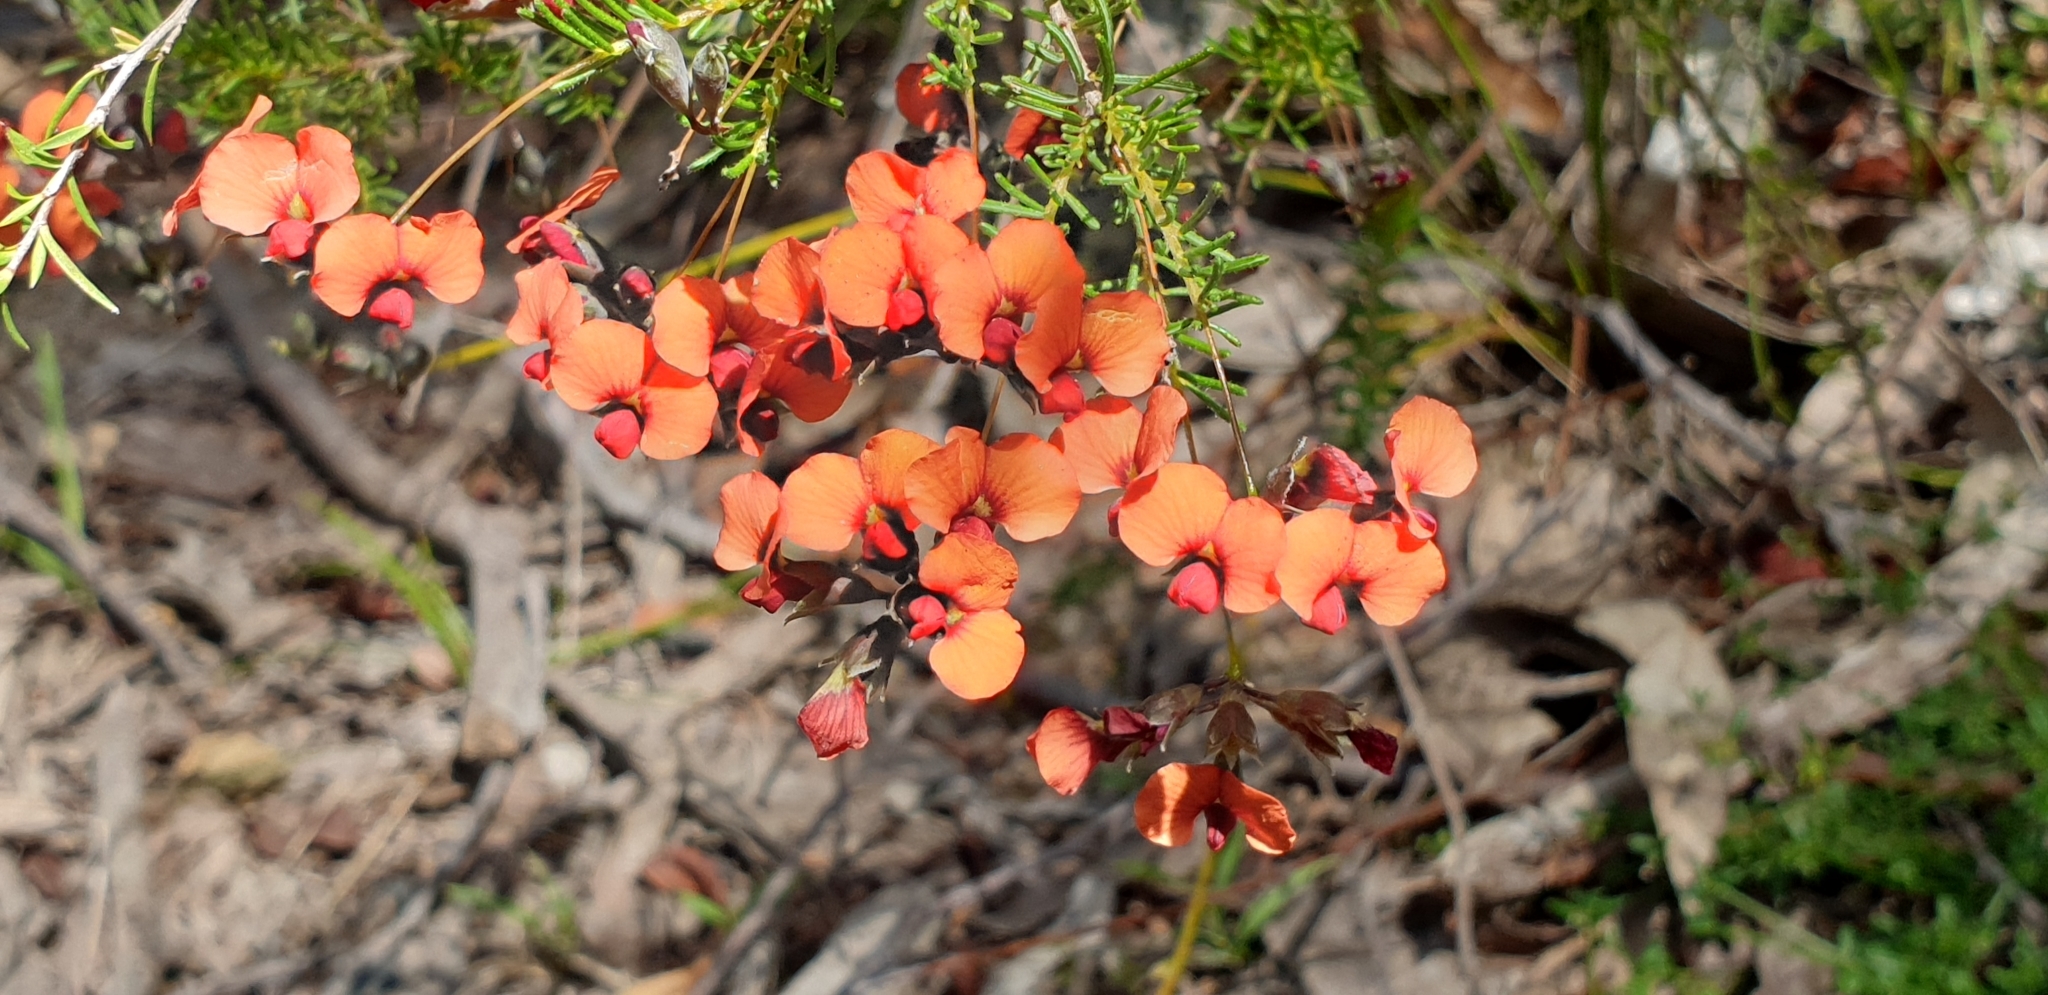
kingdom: Plantae
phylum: Tracheophyta
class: Magnoliopsida
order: Fabales
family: Fabaceae
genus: Dillwynia
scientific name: Dillwynia hispida
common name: Red parrot-pea
